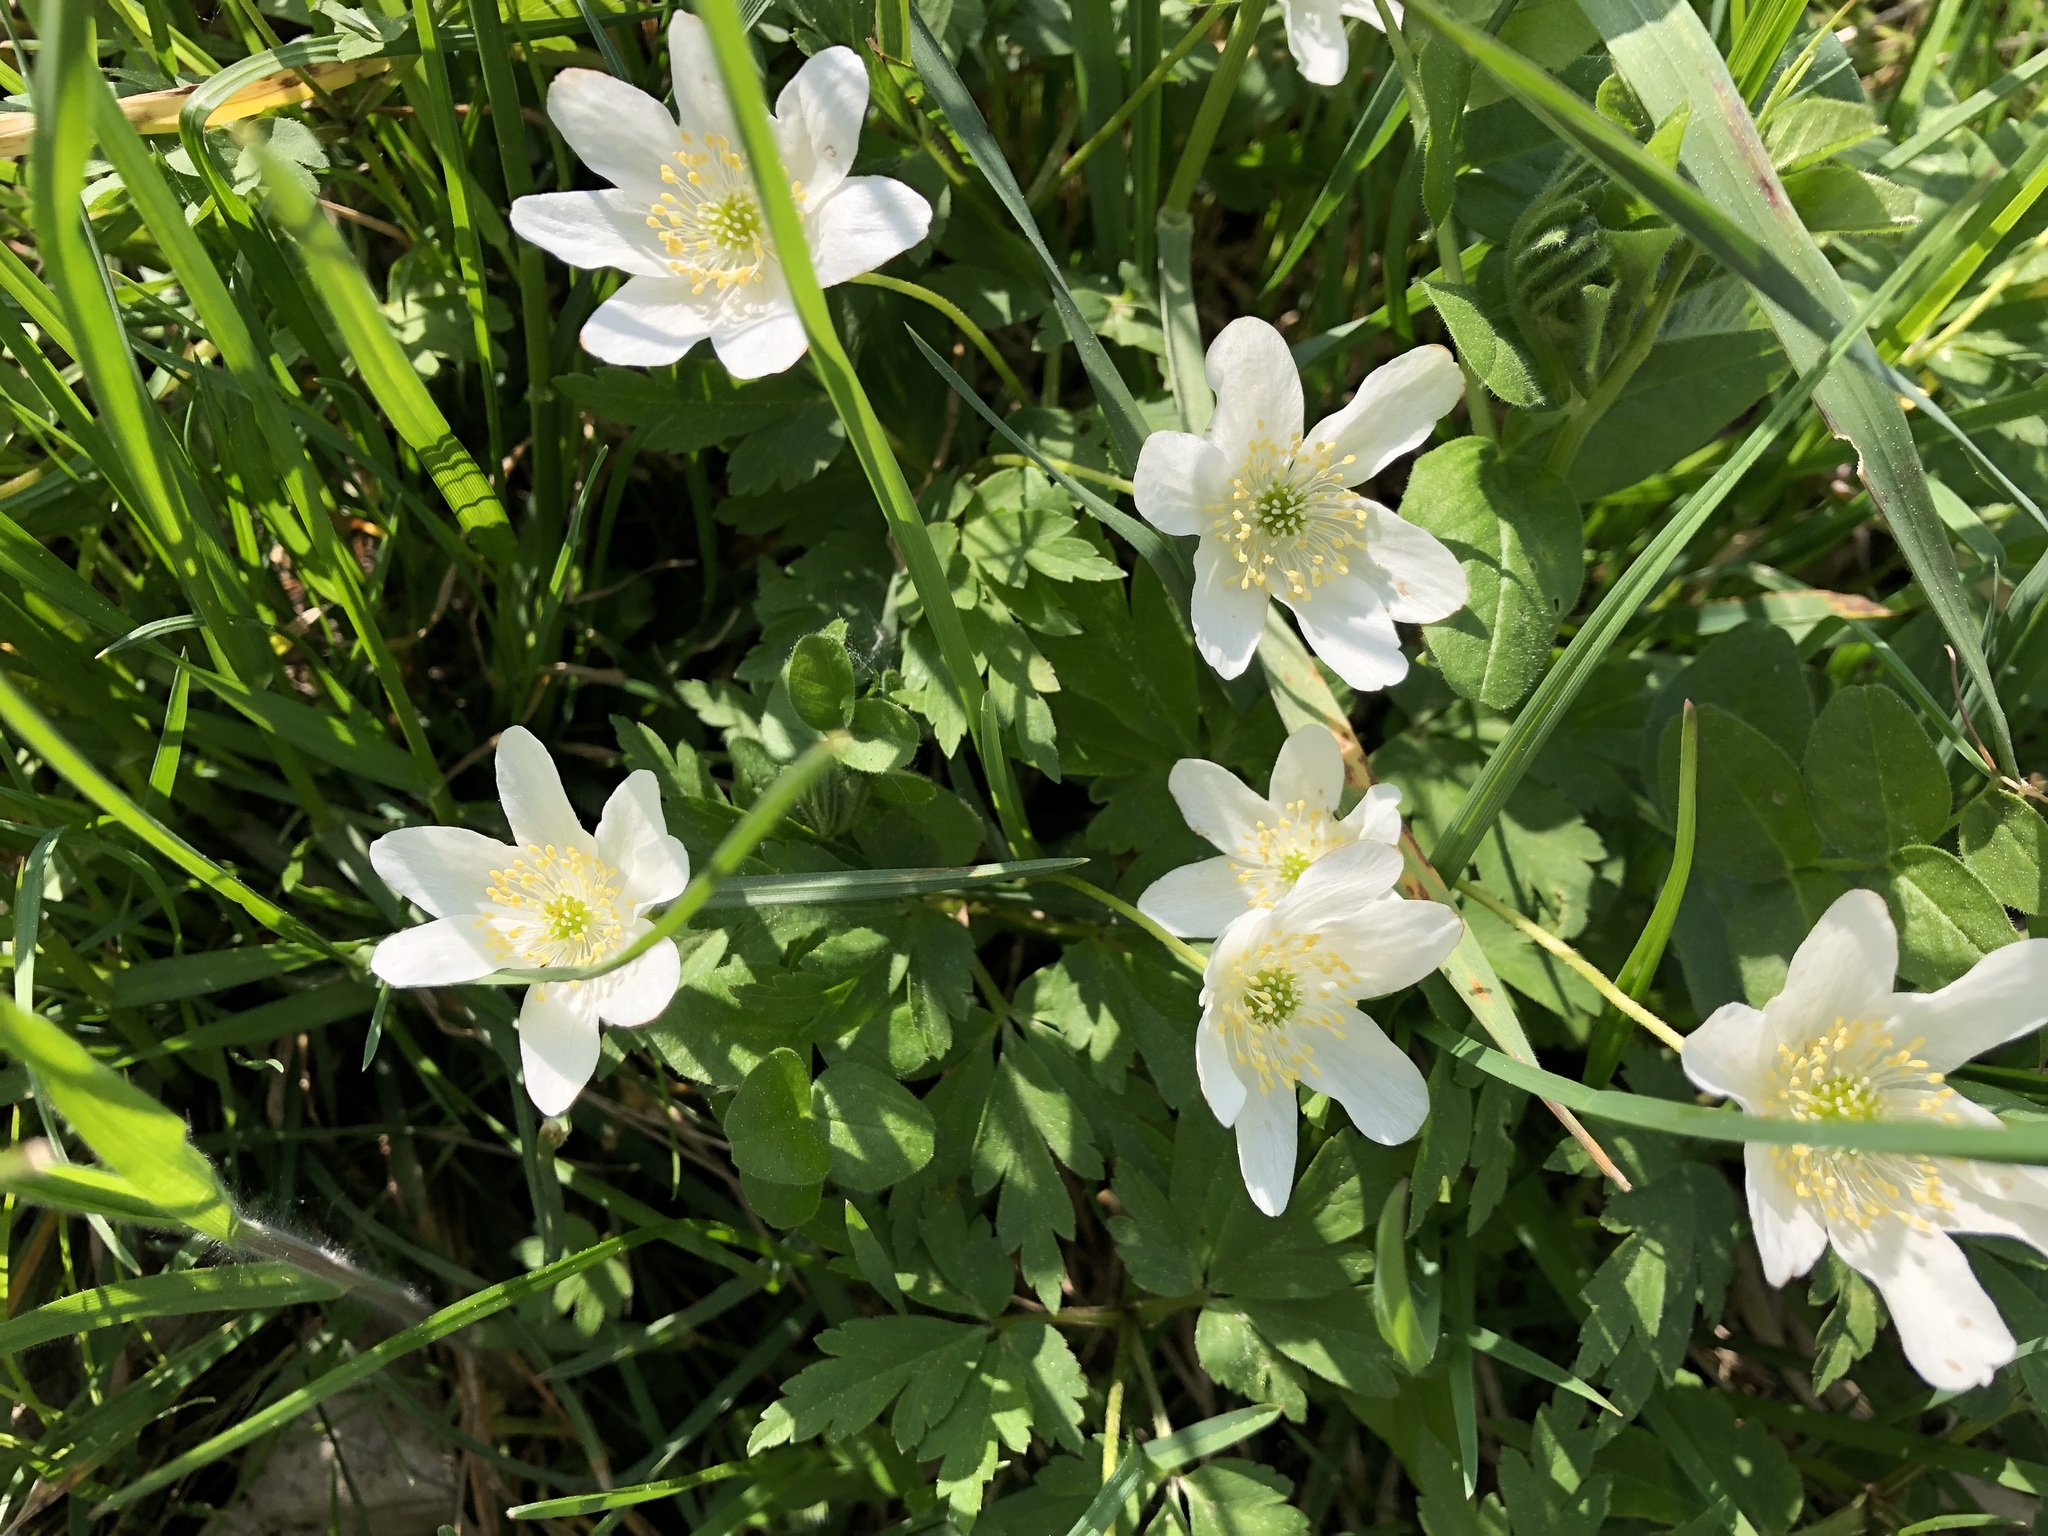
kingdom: Plantae
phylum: Tracheophyta
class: Magnoliopsida
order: Ranunculales
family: Ranunculaceae
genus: Anemone
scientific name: Anemone nemorosa
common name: Wood anemone
